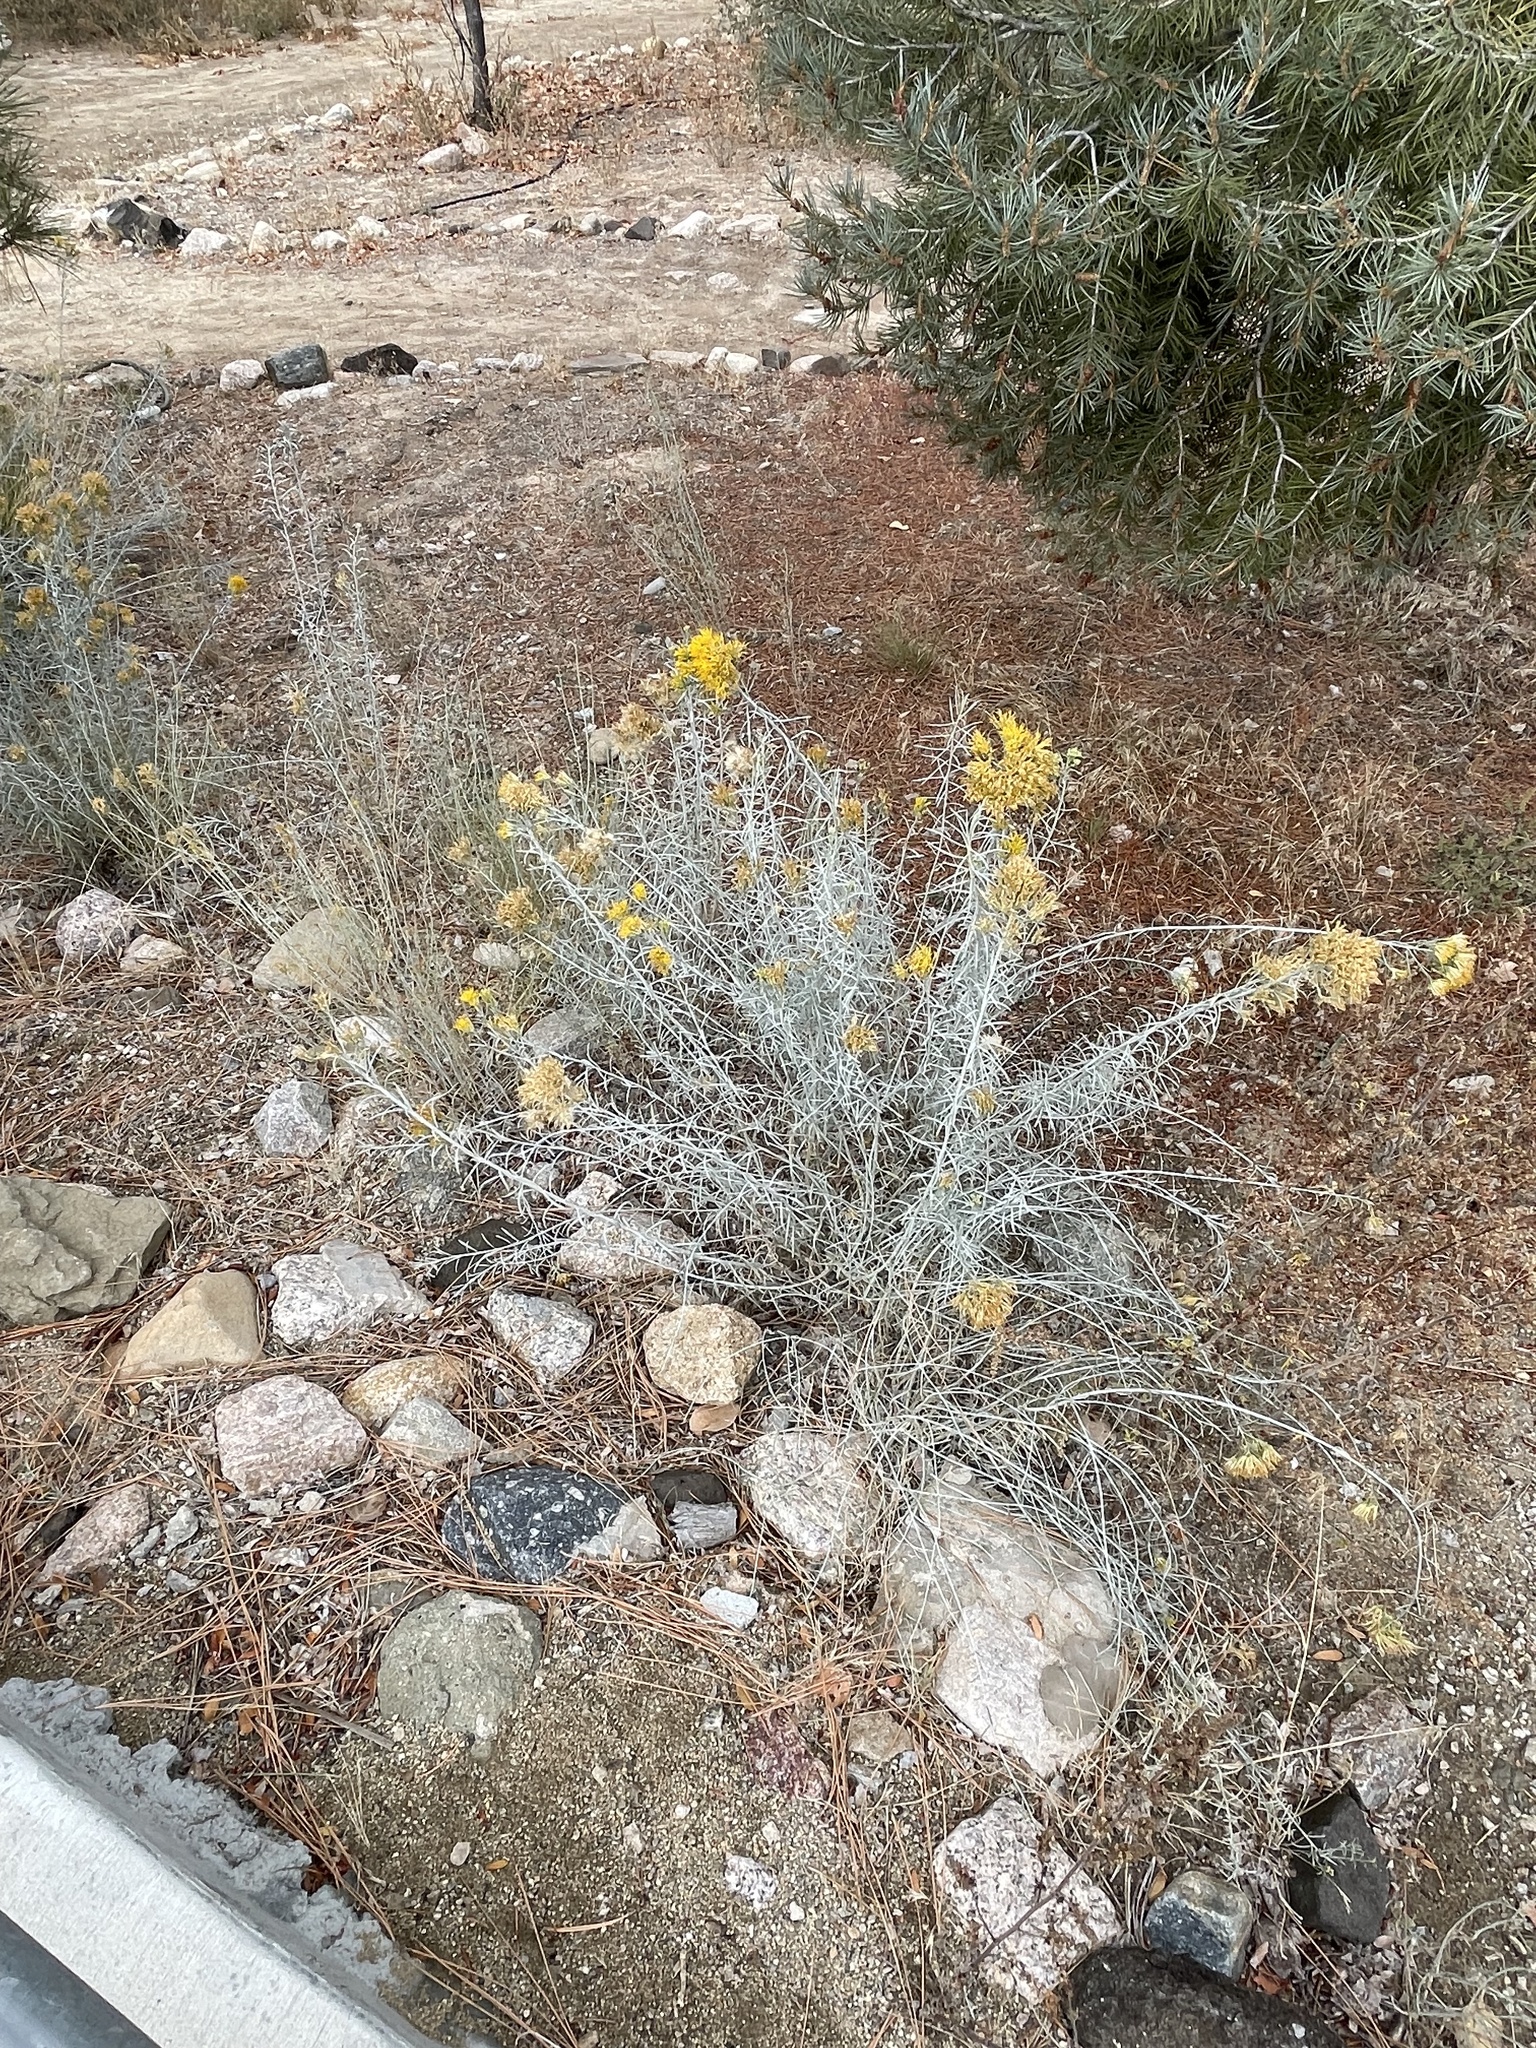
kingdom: Plantae
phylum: Tracheophyta
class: Magnoliopsida
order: Asterales
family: Asteraceae
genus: Ericameria
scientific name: Ericameria nauseosa
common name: Rubber rabbitbrush
